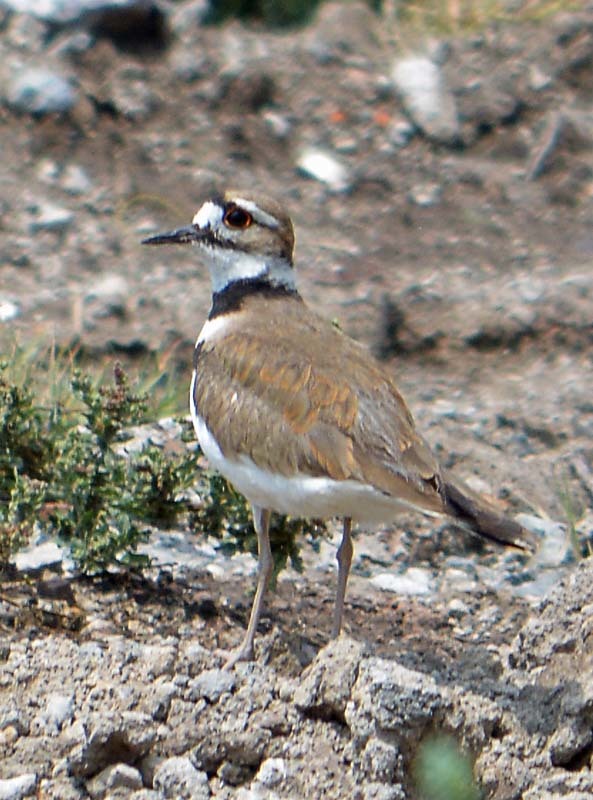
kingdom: Animalia
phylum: Chordata
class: Aves
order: Charadriiformes
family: Charadriidae
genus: Charadrius
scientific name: Charadrius vociferus
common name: Killdeer
